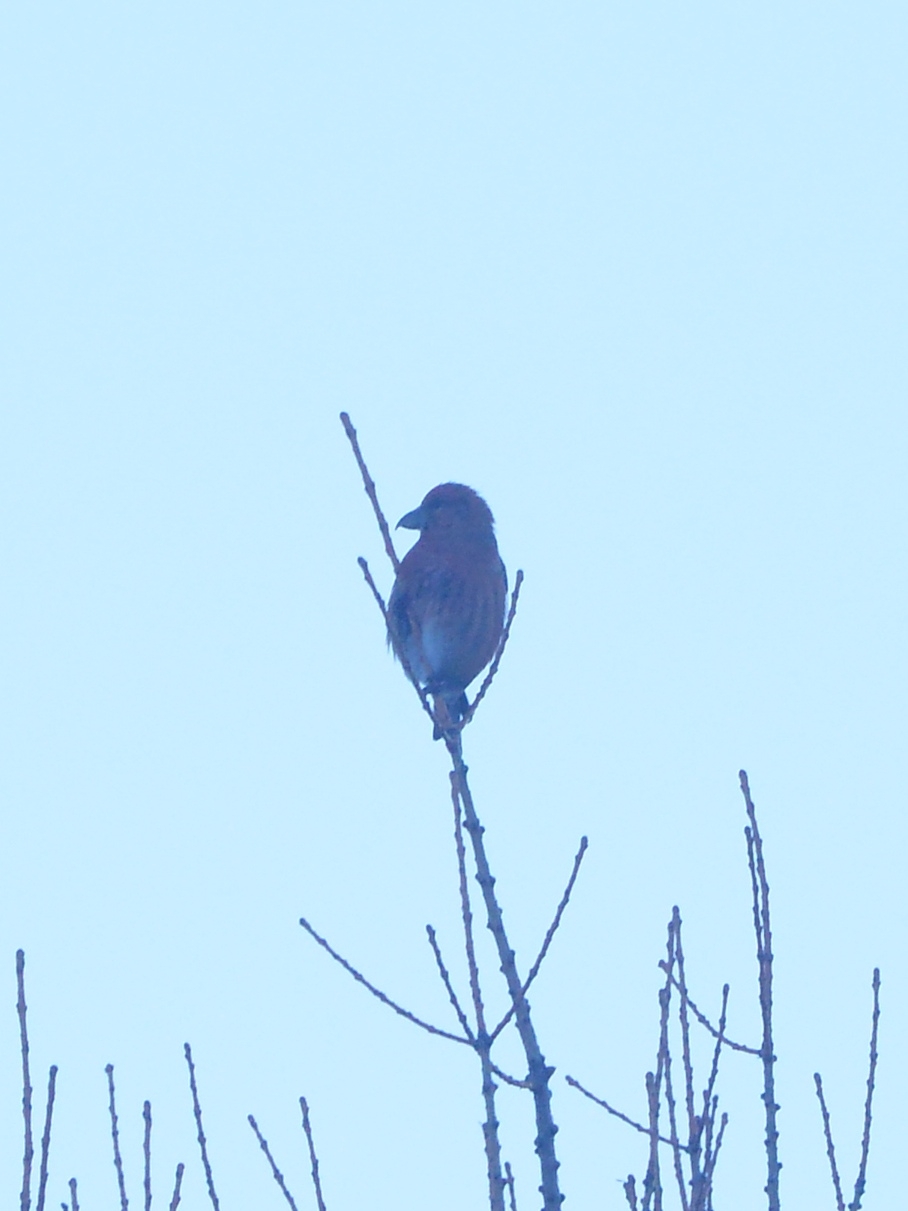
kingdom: Animalia
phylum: Chordata
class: Aves
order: Passeriformes
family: Fringillidae
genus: Loxia
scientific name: Loxia curvirostra
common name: Red crossbill
